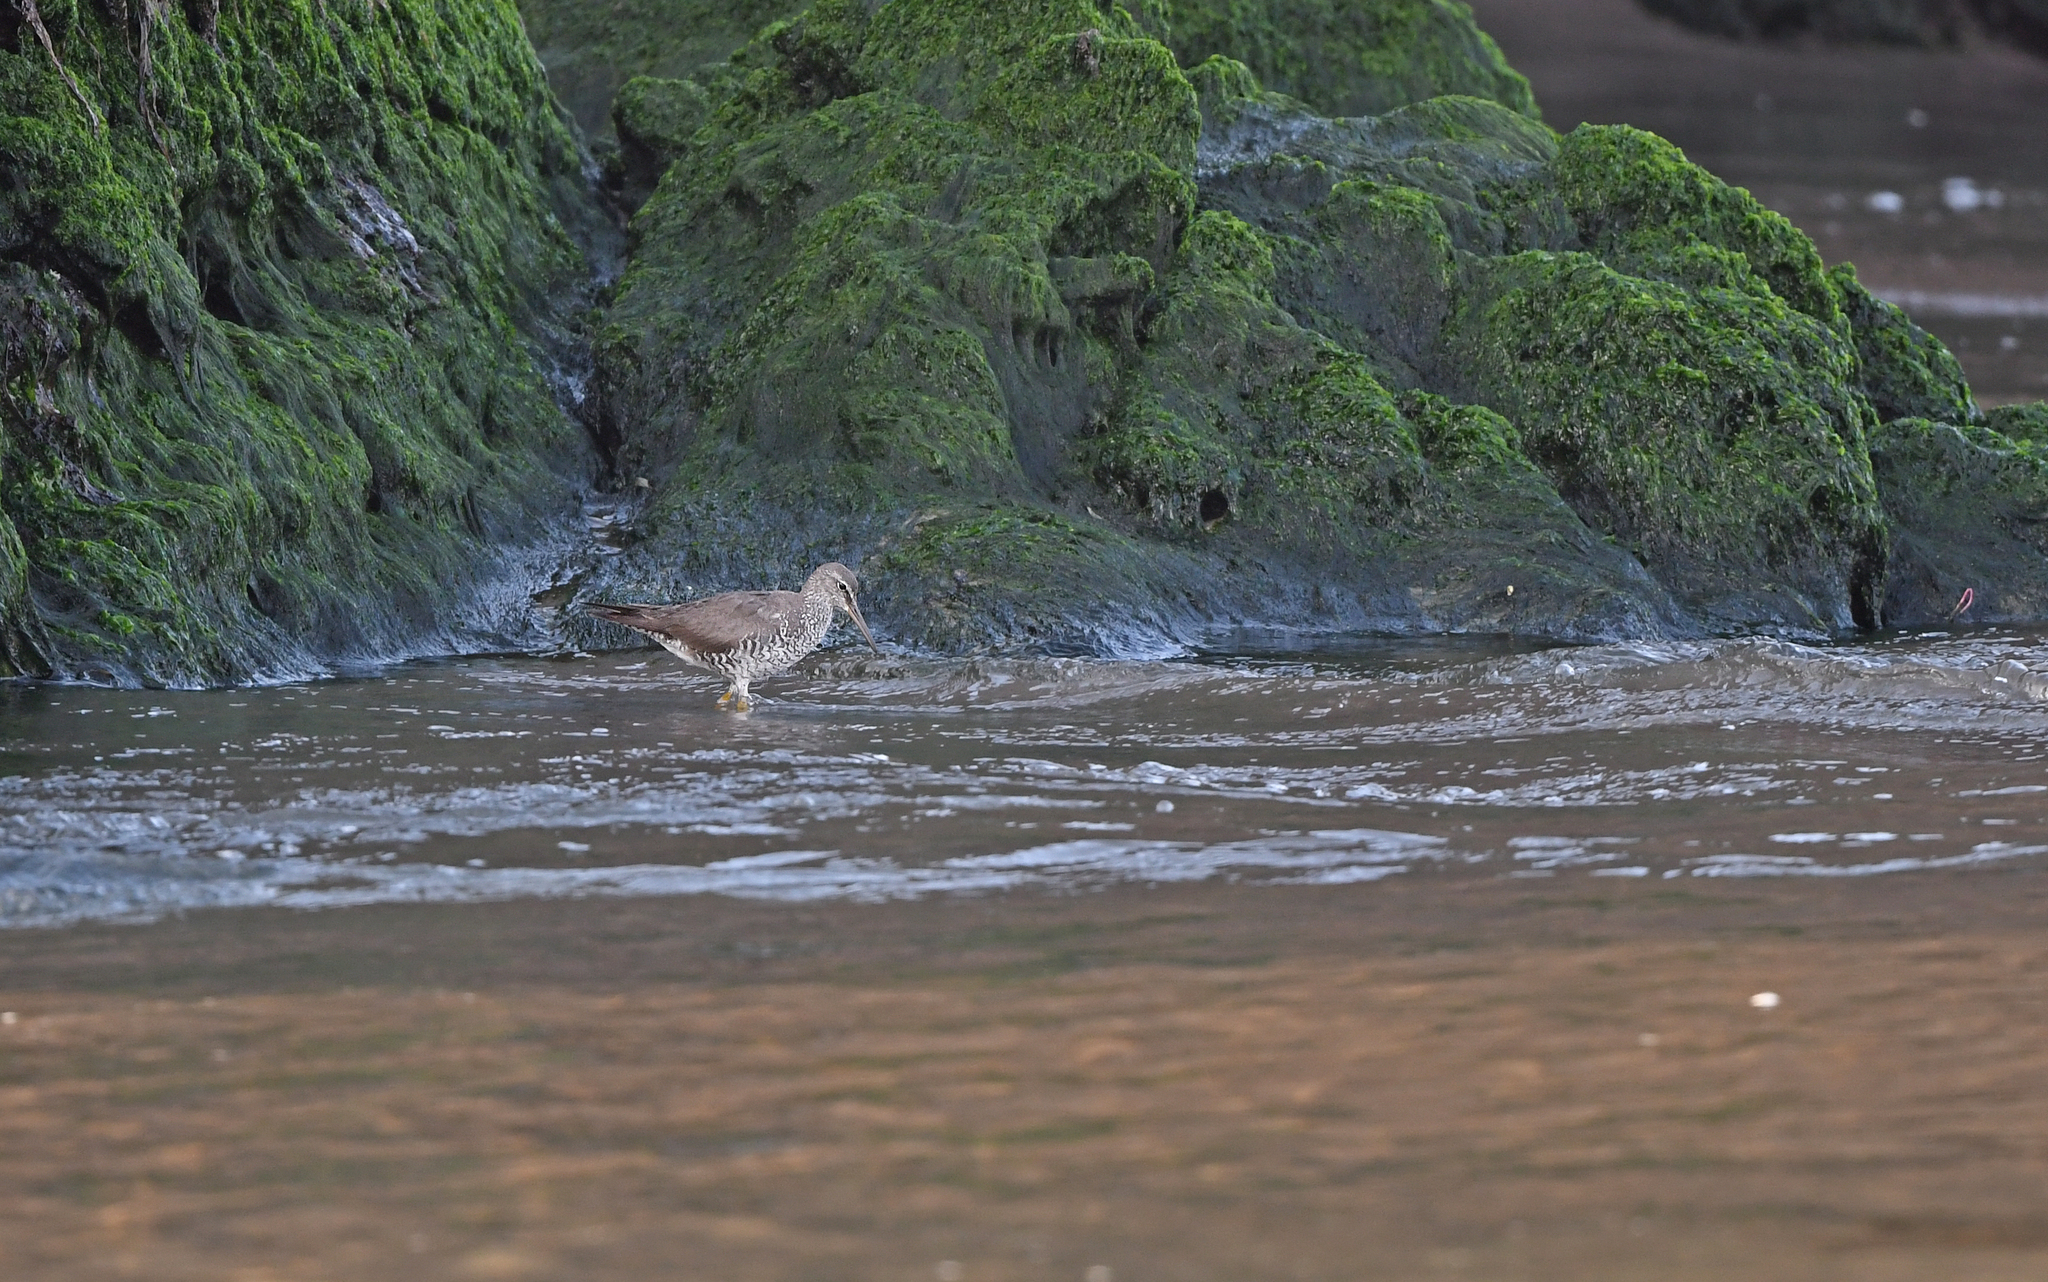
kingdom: Animalia
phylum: Chordata
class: Aves
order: Charadriiformes
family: Scolopacidae
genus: Tringa
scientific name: Tringa incana
